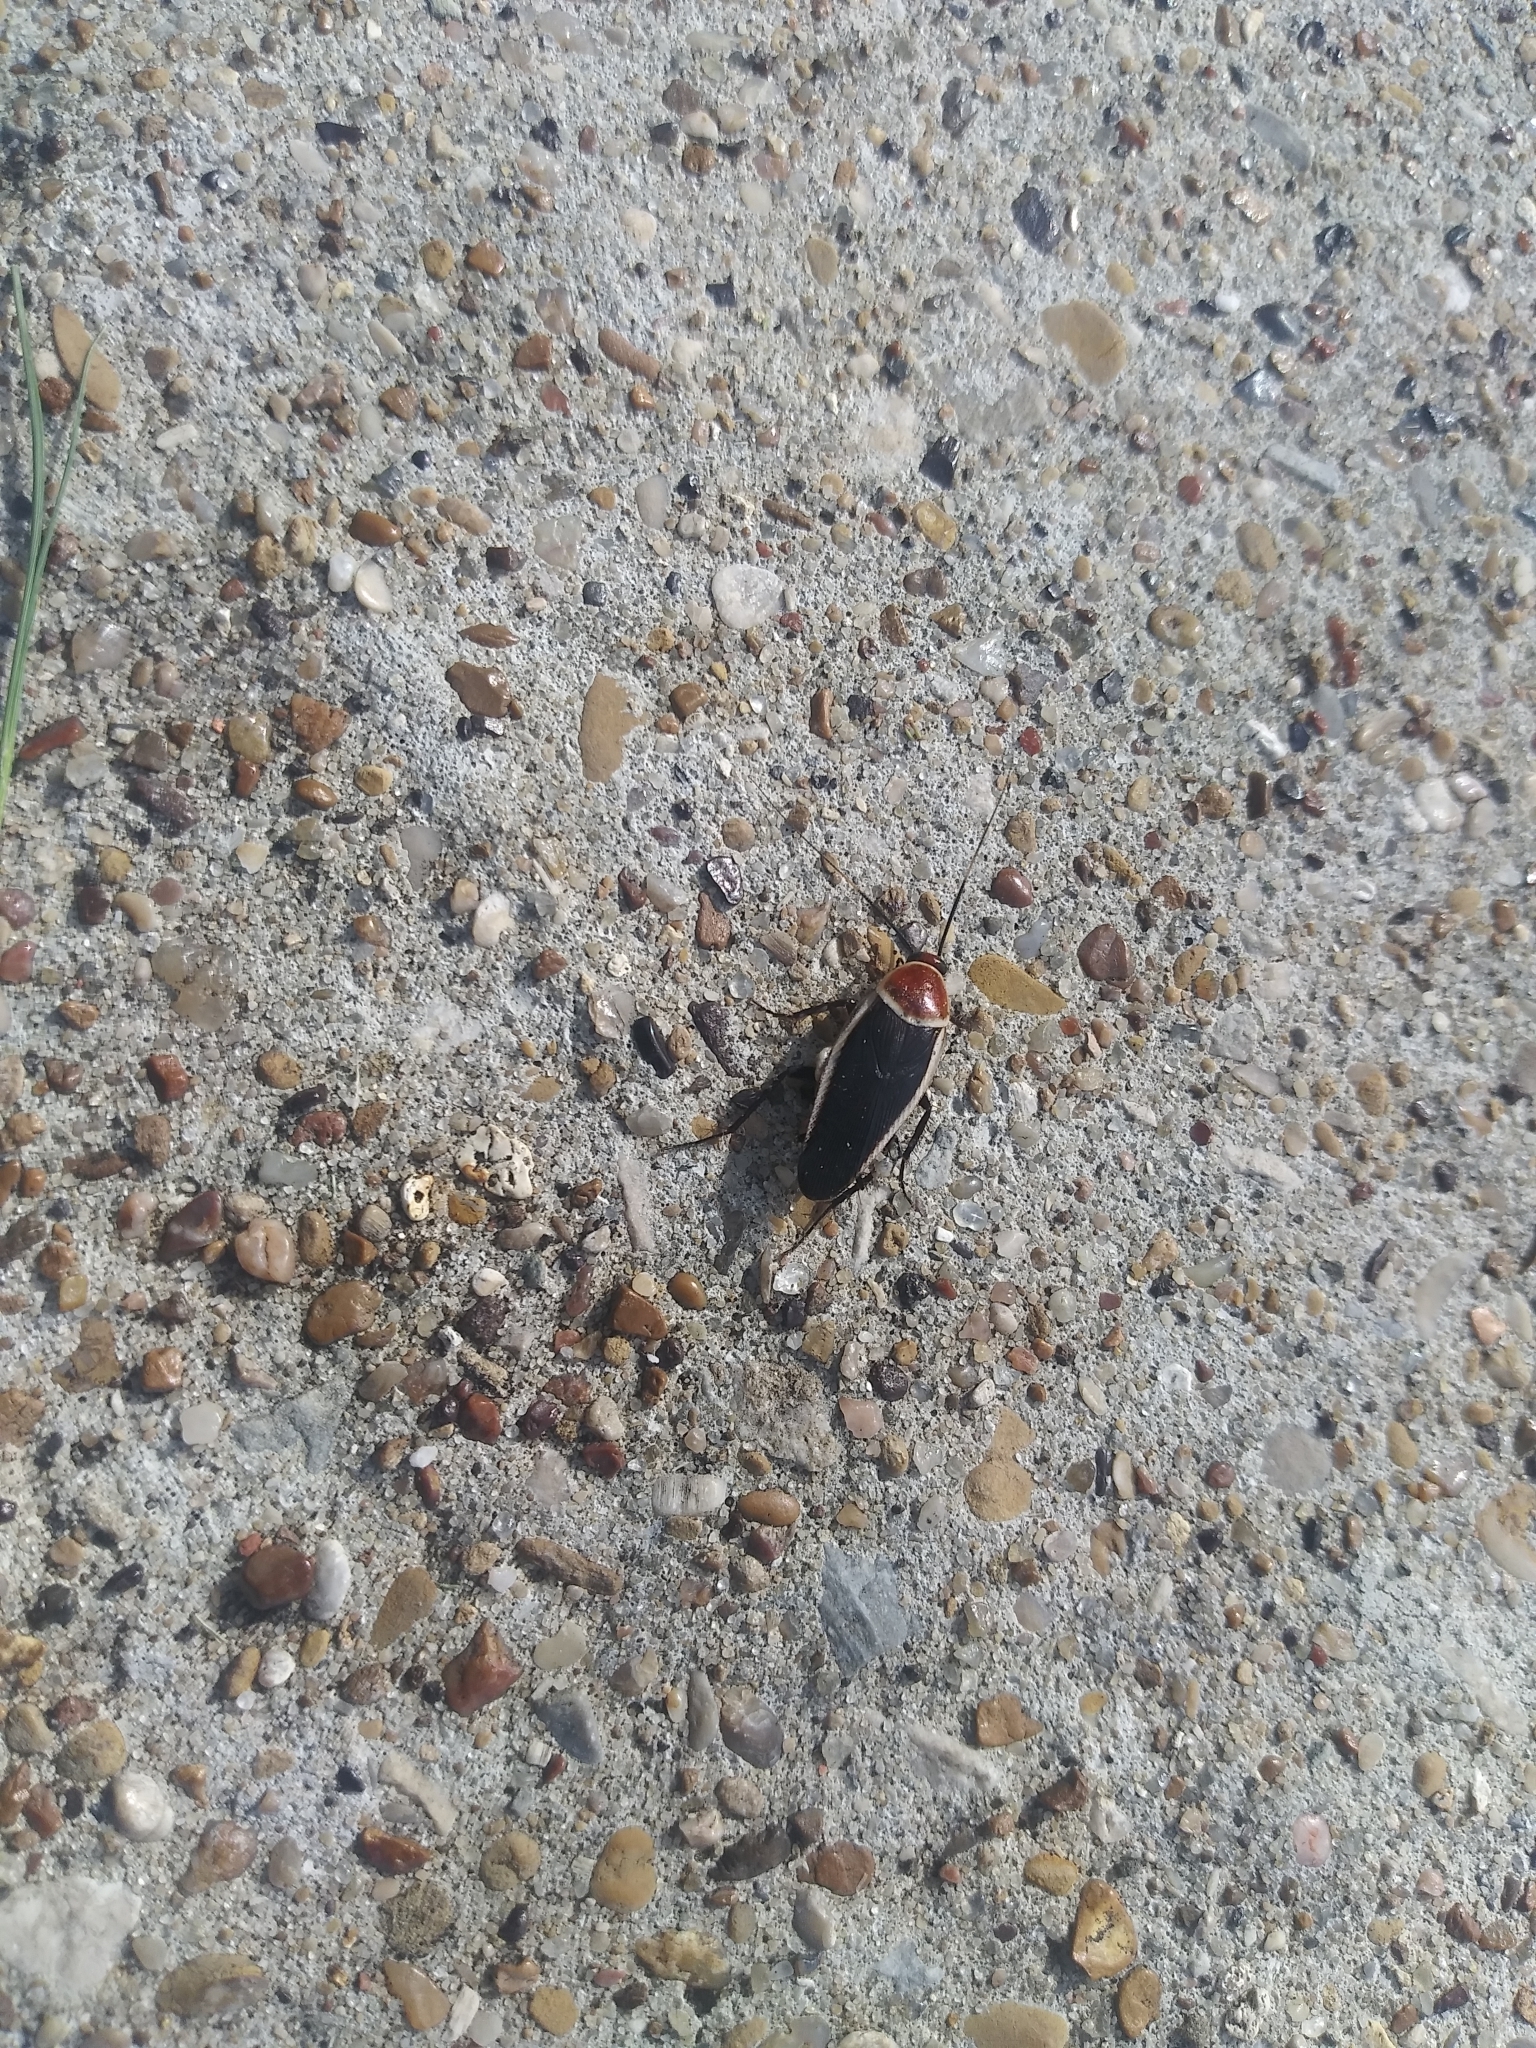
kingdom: Animalia
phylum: Arthropoda
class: Insecta
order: Blattodea
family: Ectobiidae
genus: Pseudomops
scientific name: Pseudomops septentrionalis
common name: Pale-bordered field cockroach
